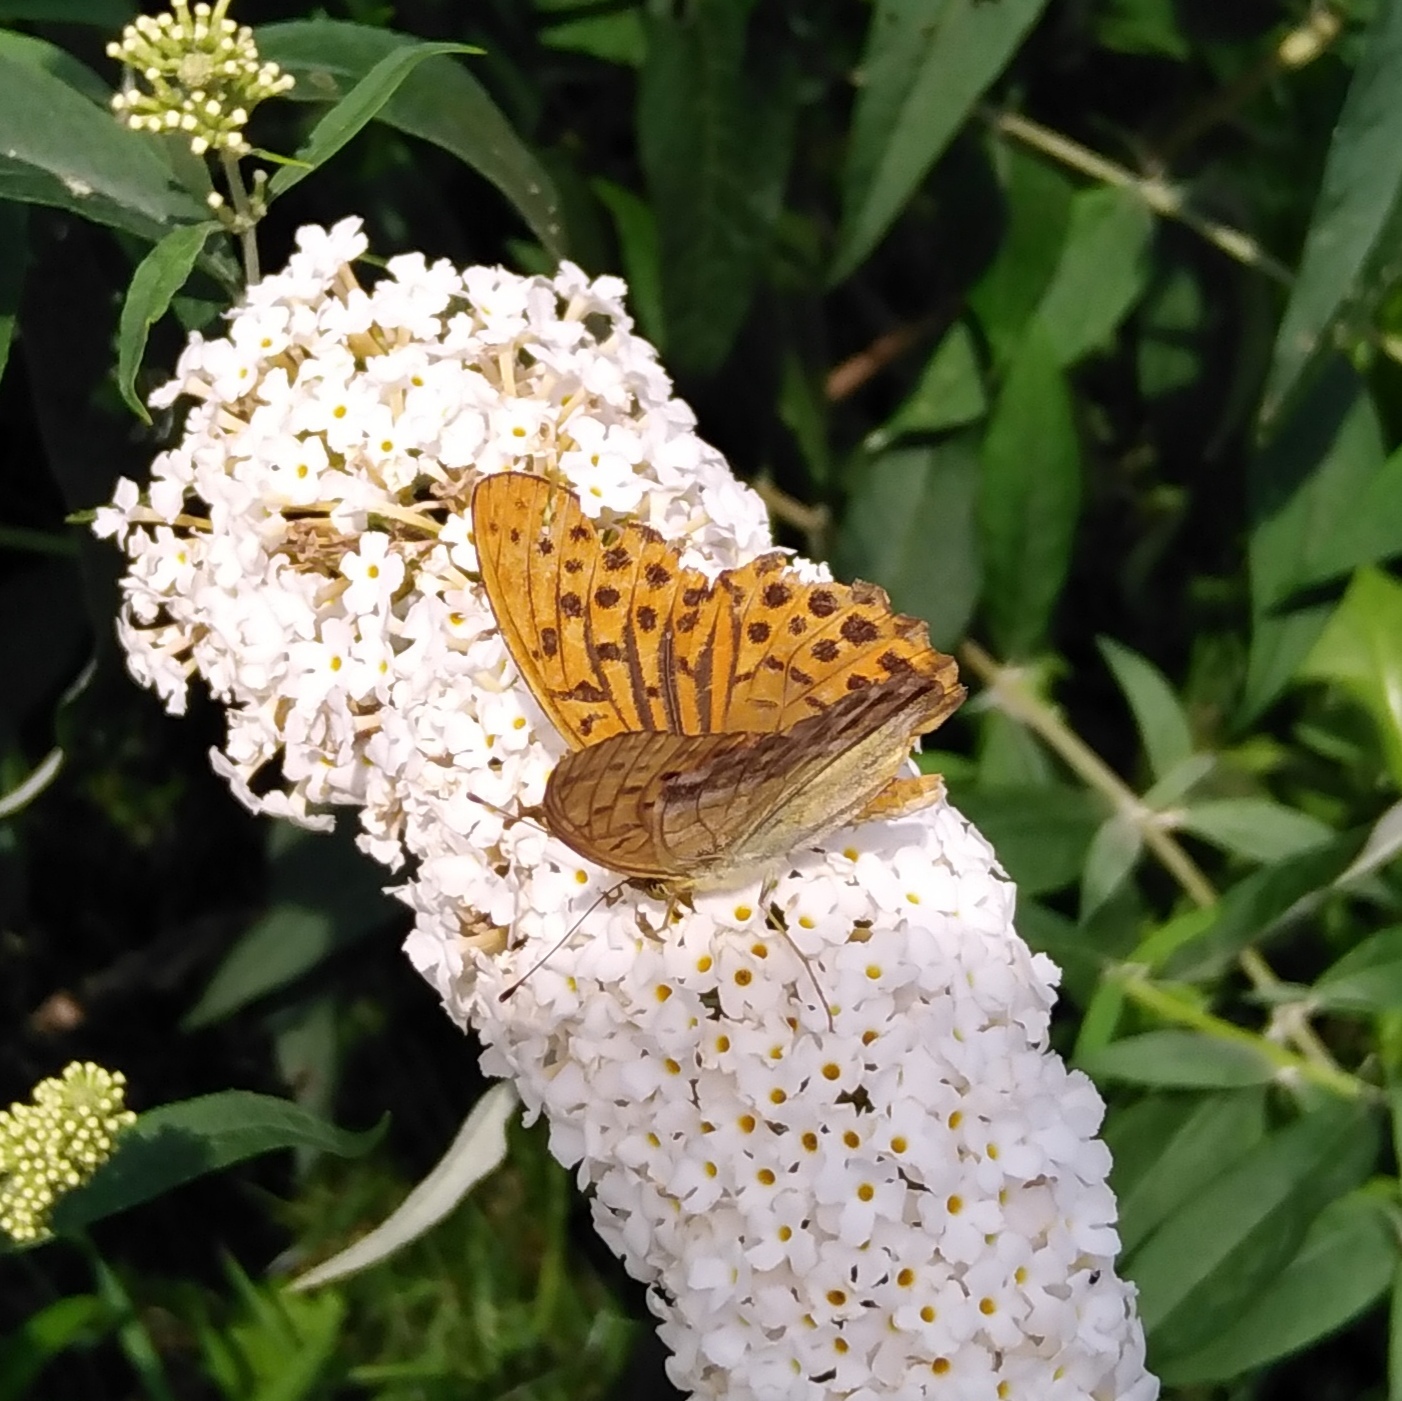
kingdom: Animalia
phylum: Arthropoda
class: Insecta
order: Lepidoptera
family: Nymphalidae
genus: Argynnis
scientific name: Argynnis paphia
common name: Silver-washed fritillary
